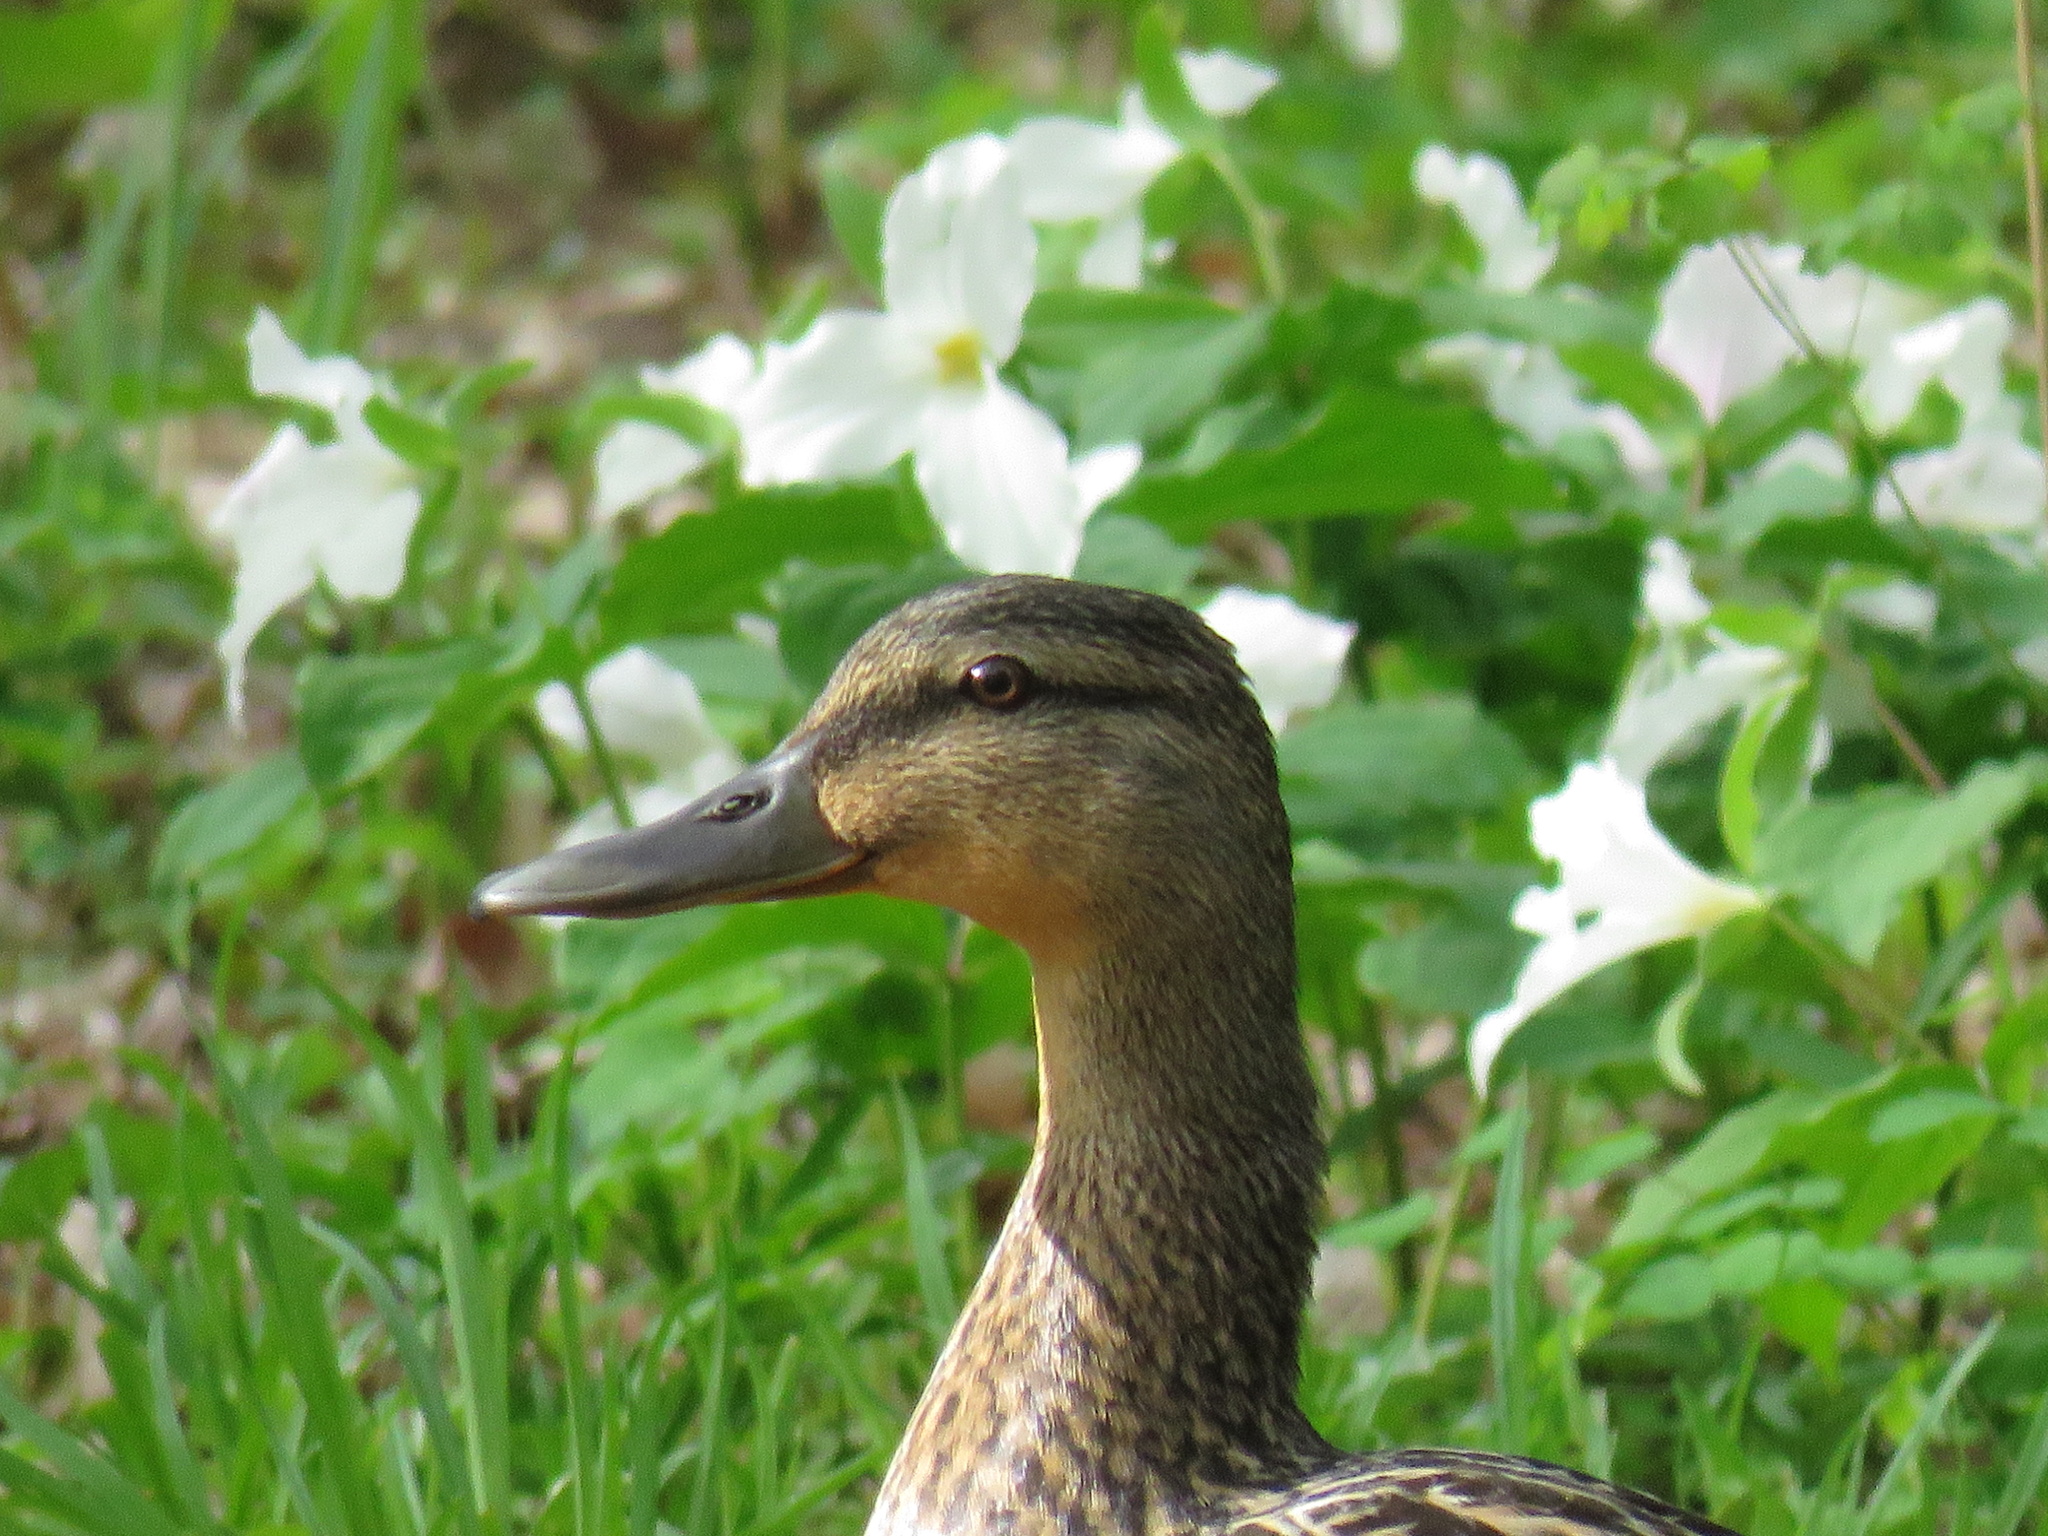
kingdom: Animalia
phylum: Chordata
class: Aves
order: Anseriformes
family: Anatidae
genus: Anas
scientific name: Anas platyrhynchos
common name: Mallard
